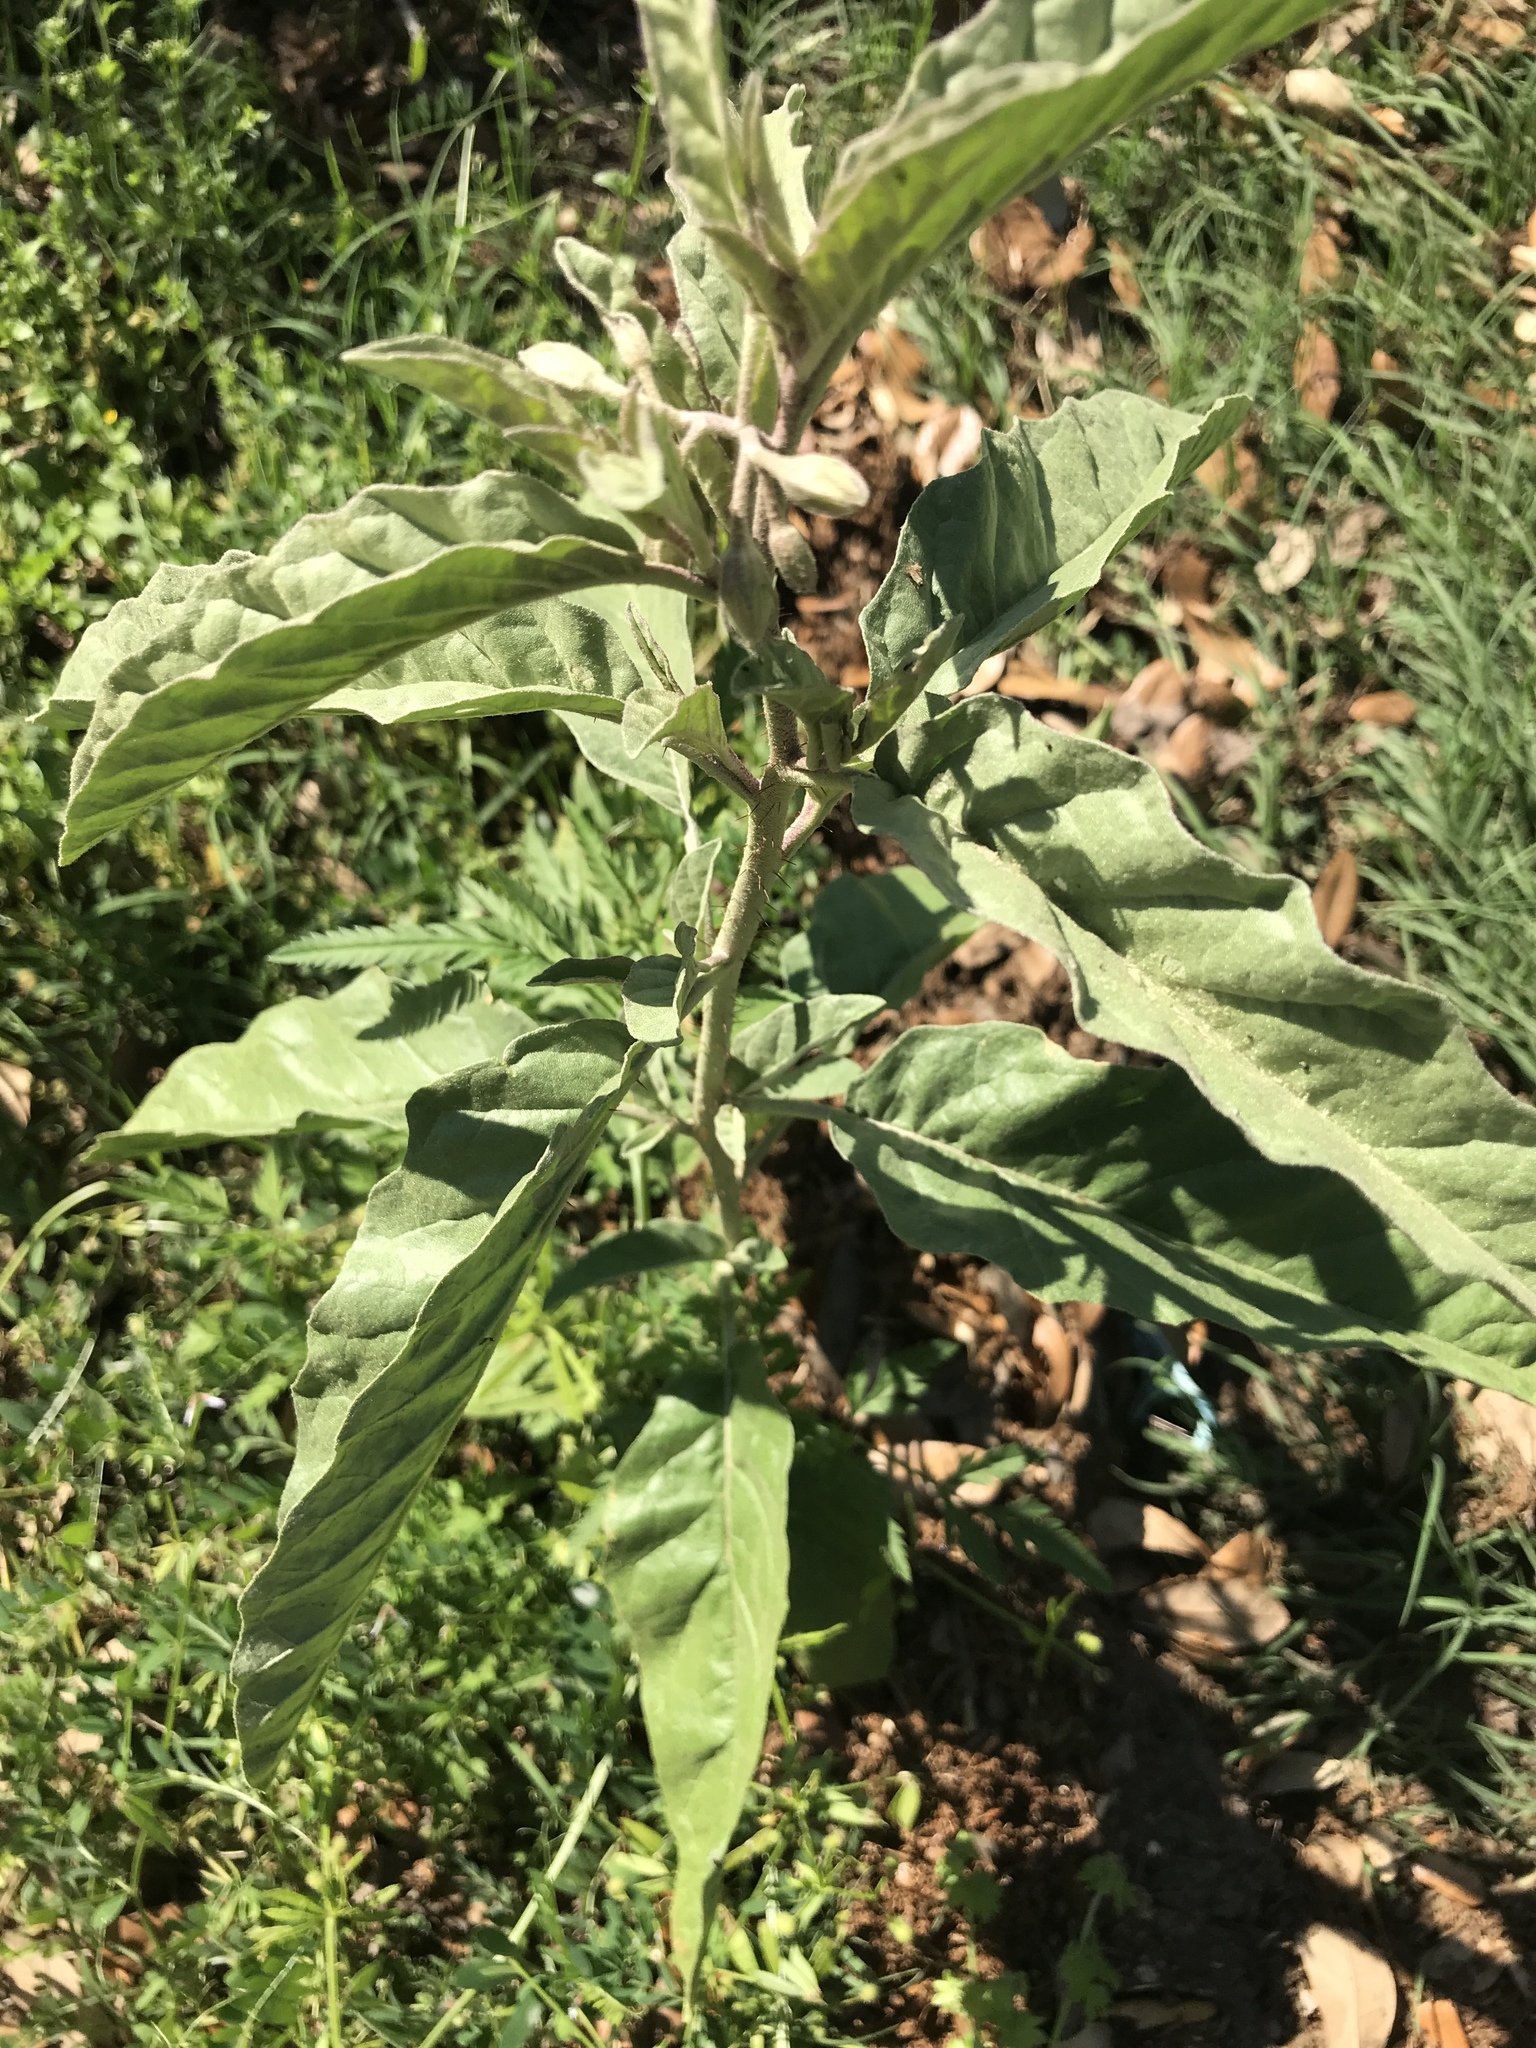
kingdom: Plantae
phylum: Tracheophyta
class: Magnoliopsida
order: Solanales
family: Solanaceae
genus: Solanum
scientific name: Solanum elaeagnifolium
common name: Silverleaf nightshade
